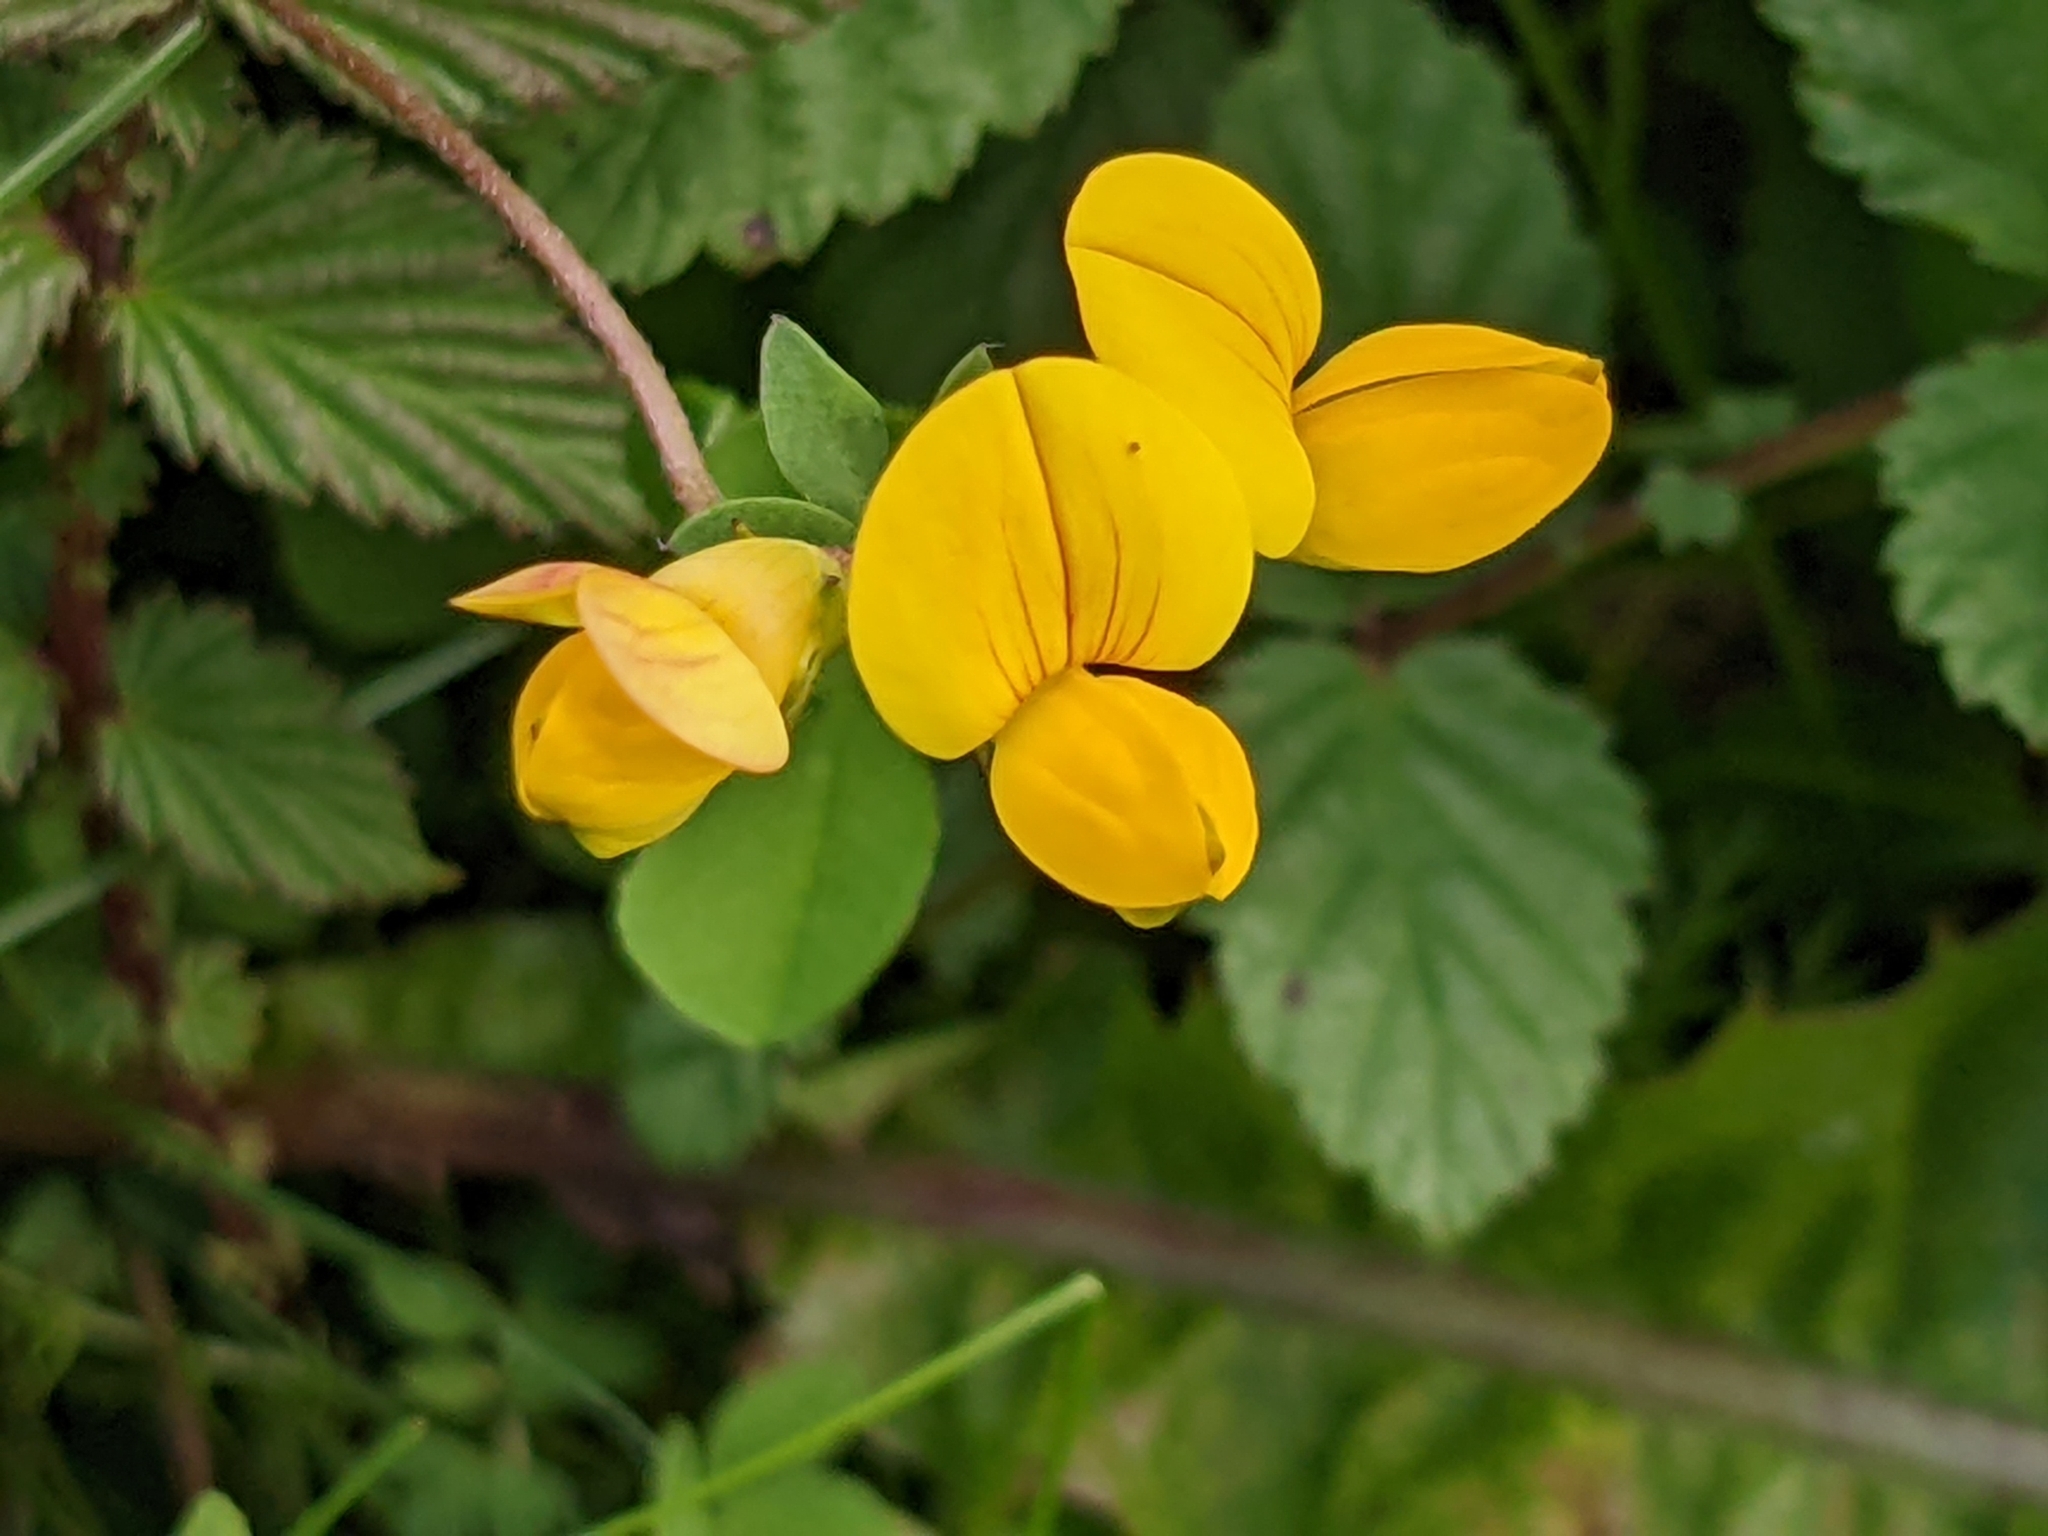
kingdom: Plantae
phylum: Tracheophyta
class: Magnoliopsida
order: Fabales
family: Fabaceae
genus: Lotus
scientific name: Lotus corniculatus
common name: Common bird's-foot-trefoil
